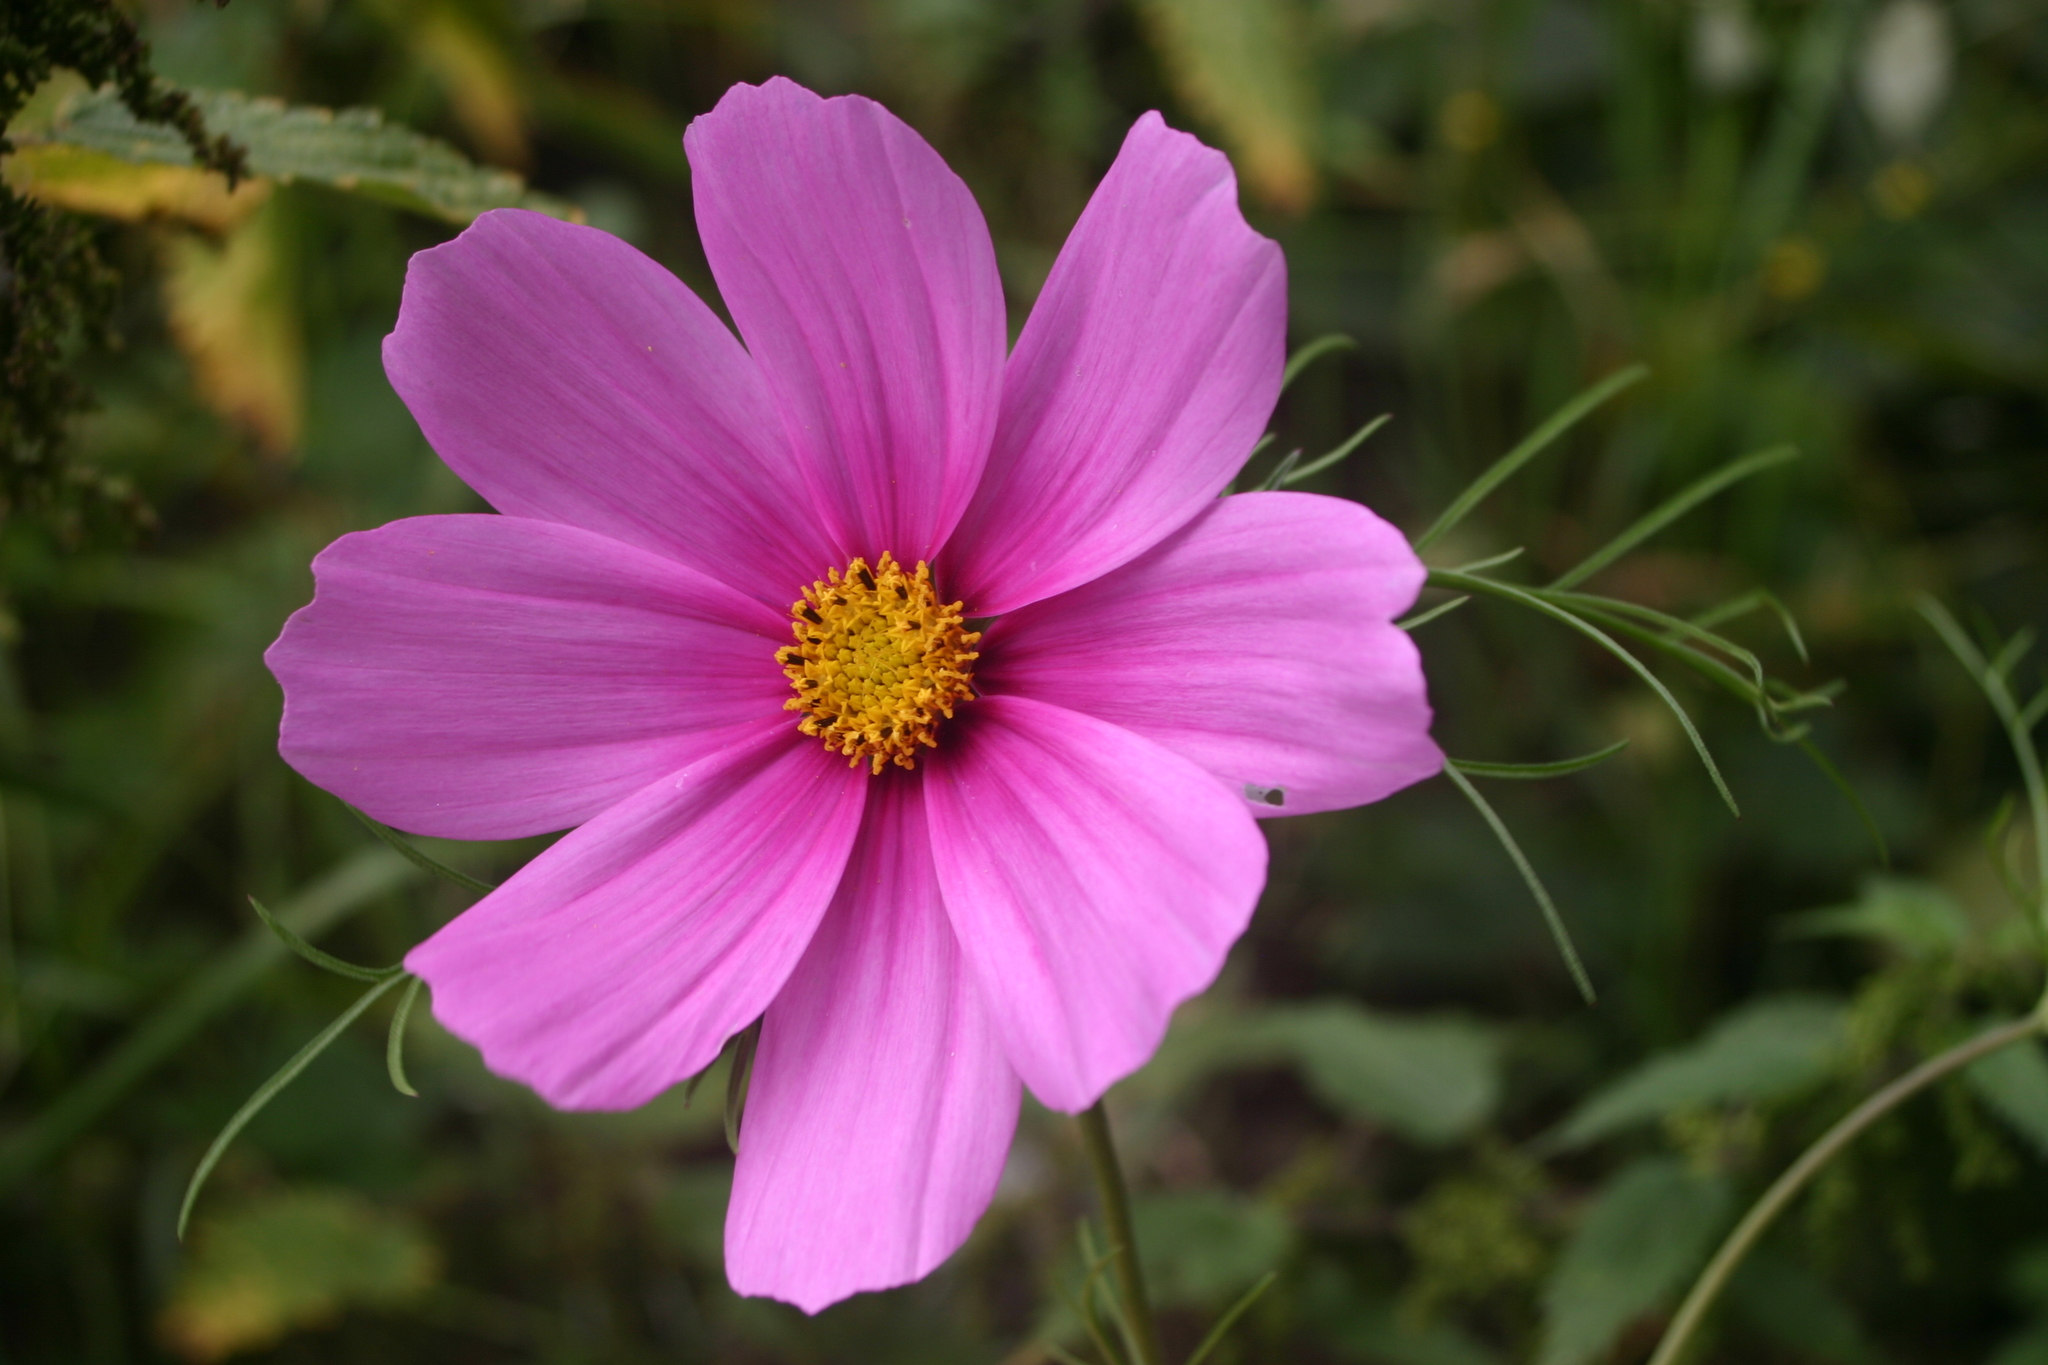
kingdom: Plantae
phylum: Tracheophyta
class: Magnoliopsida
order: Asterales
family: Asteraceae
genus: Cosmos
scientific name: Cosmos bipinnatus
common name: Garden cosmos
